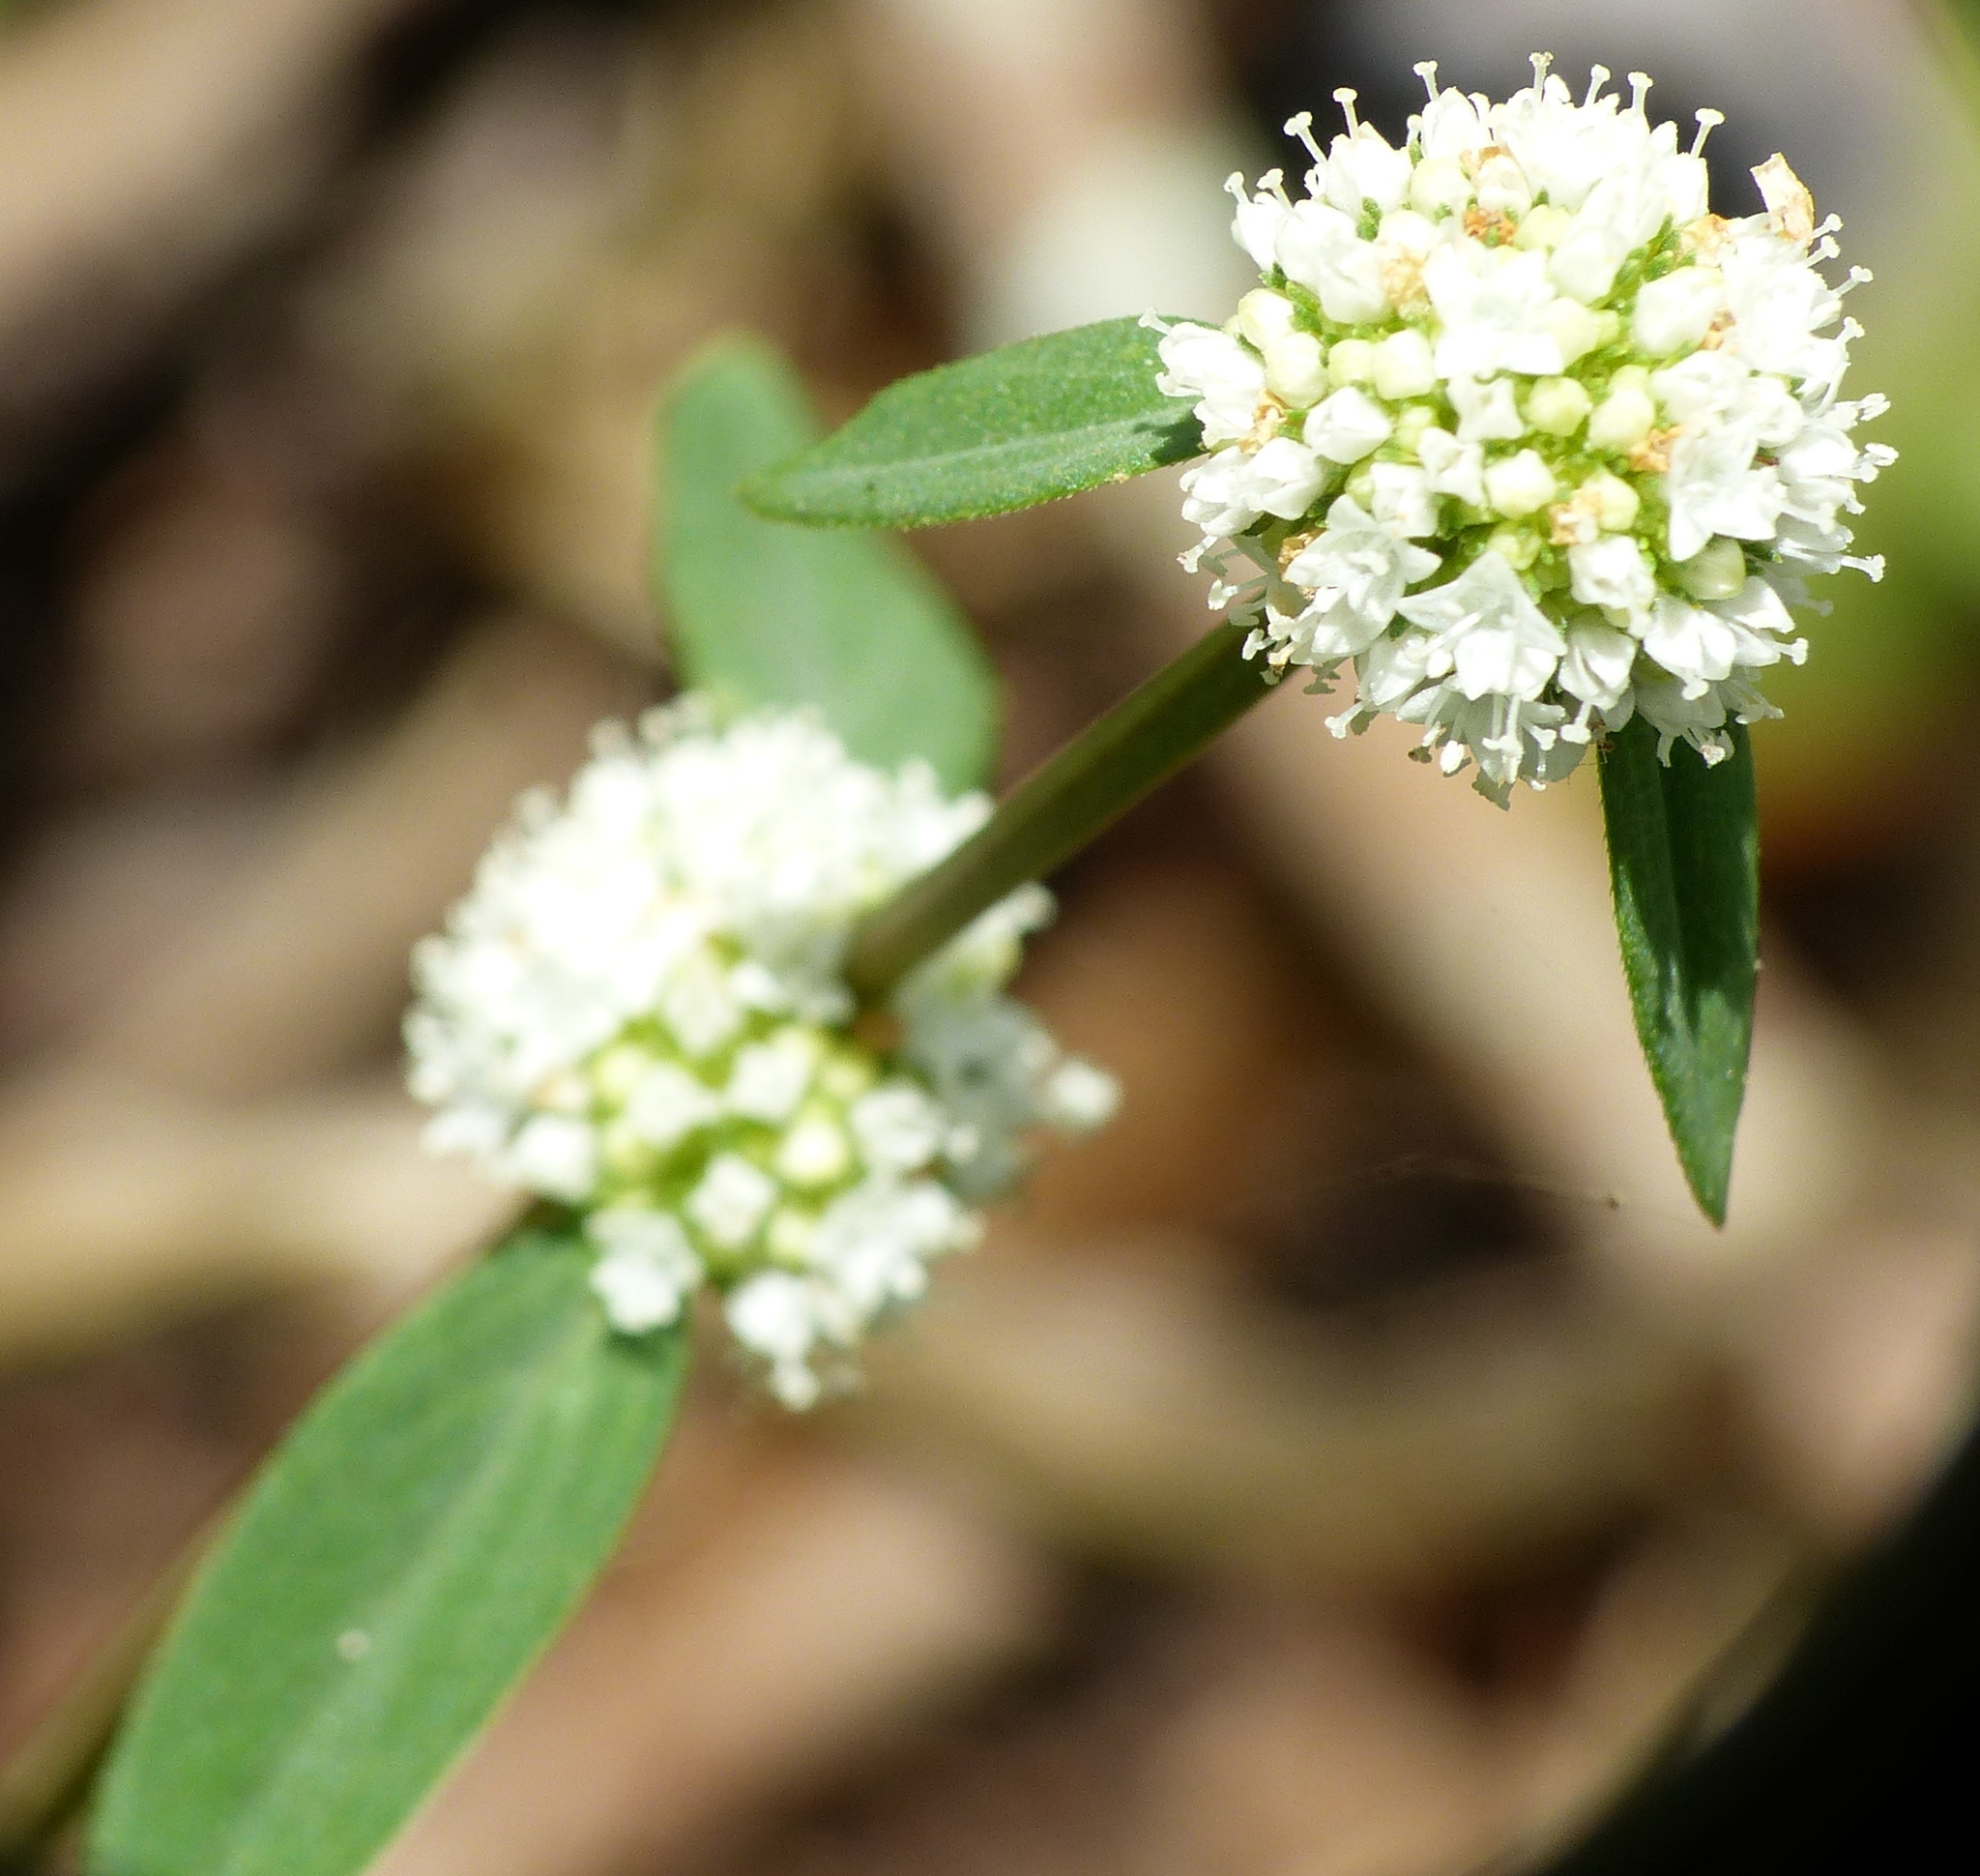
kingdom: Plantae
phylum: Tracheophyta
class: Magnoliopsida
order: Gentianales
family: Rubiaceae
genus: Spermacoce
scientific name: Spermacoce verticillata
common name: Shrubby false buttonweed
